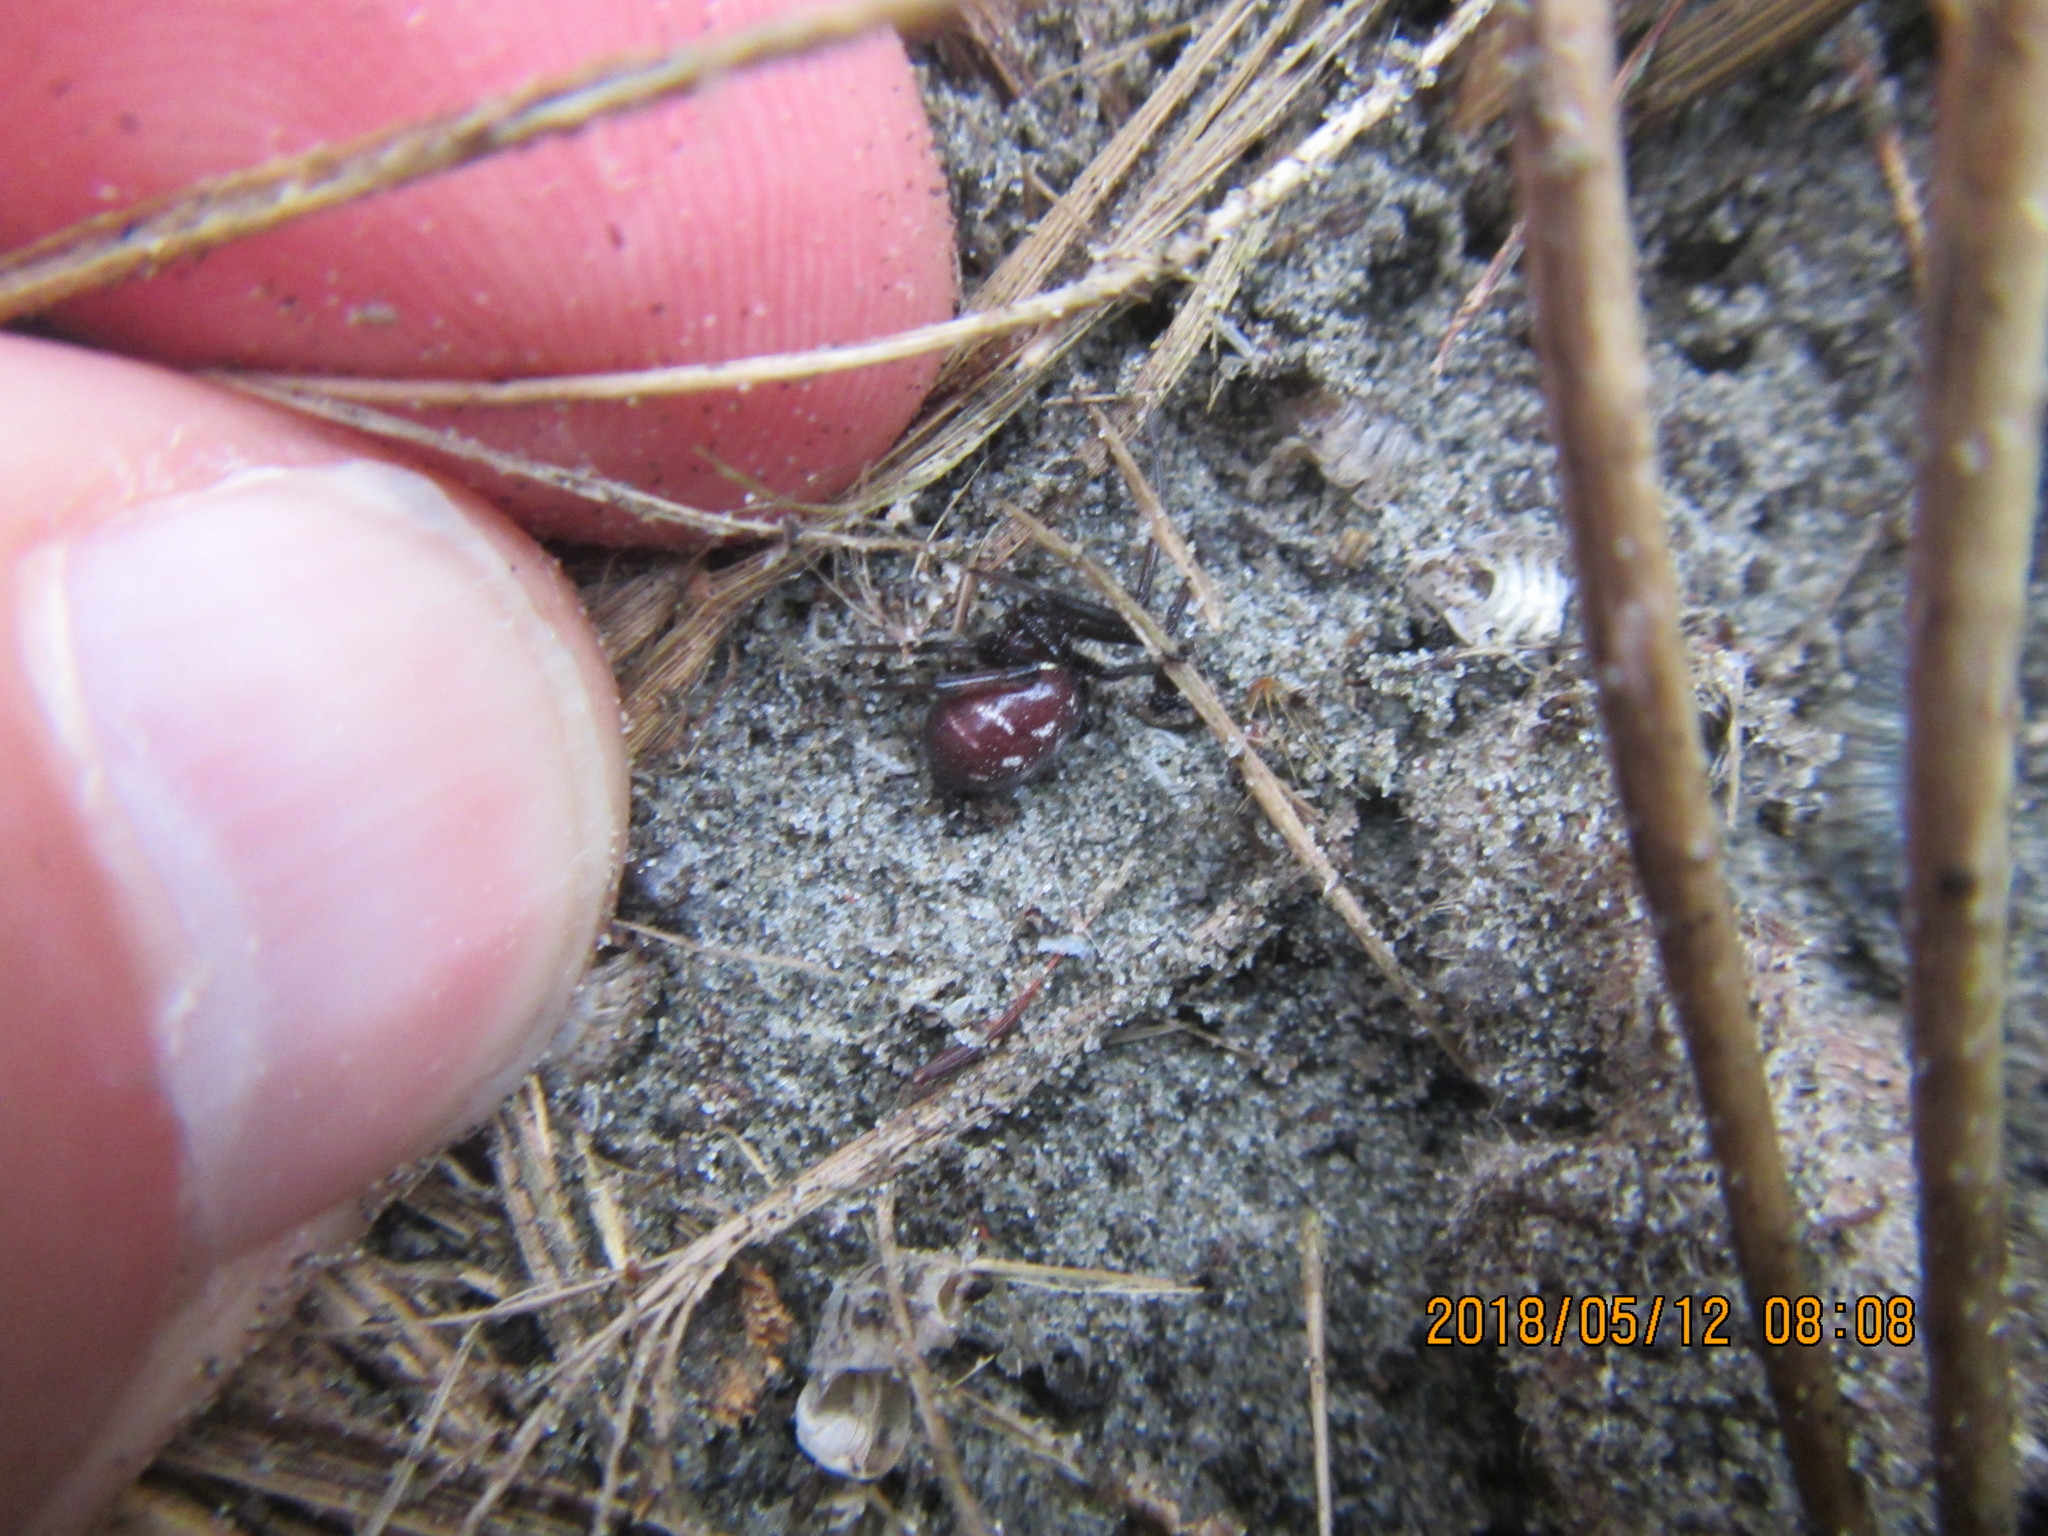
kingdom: Animalia
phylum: Arthropoda
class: Arachnida
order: Araneae
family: Theridiidae
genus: Steatoda
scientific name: Steatoda capensis
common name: Cobweb weaver
